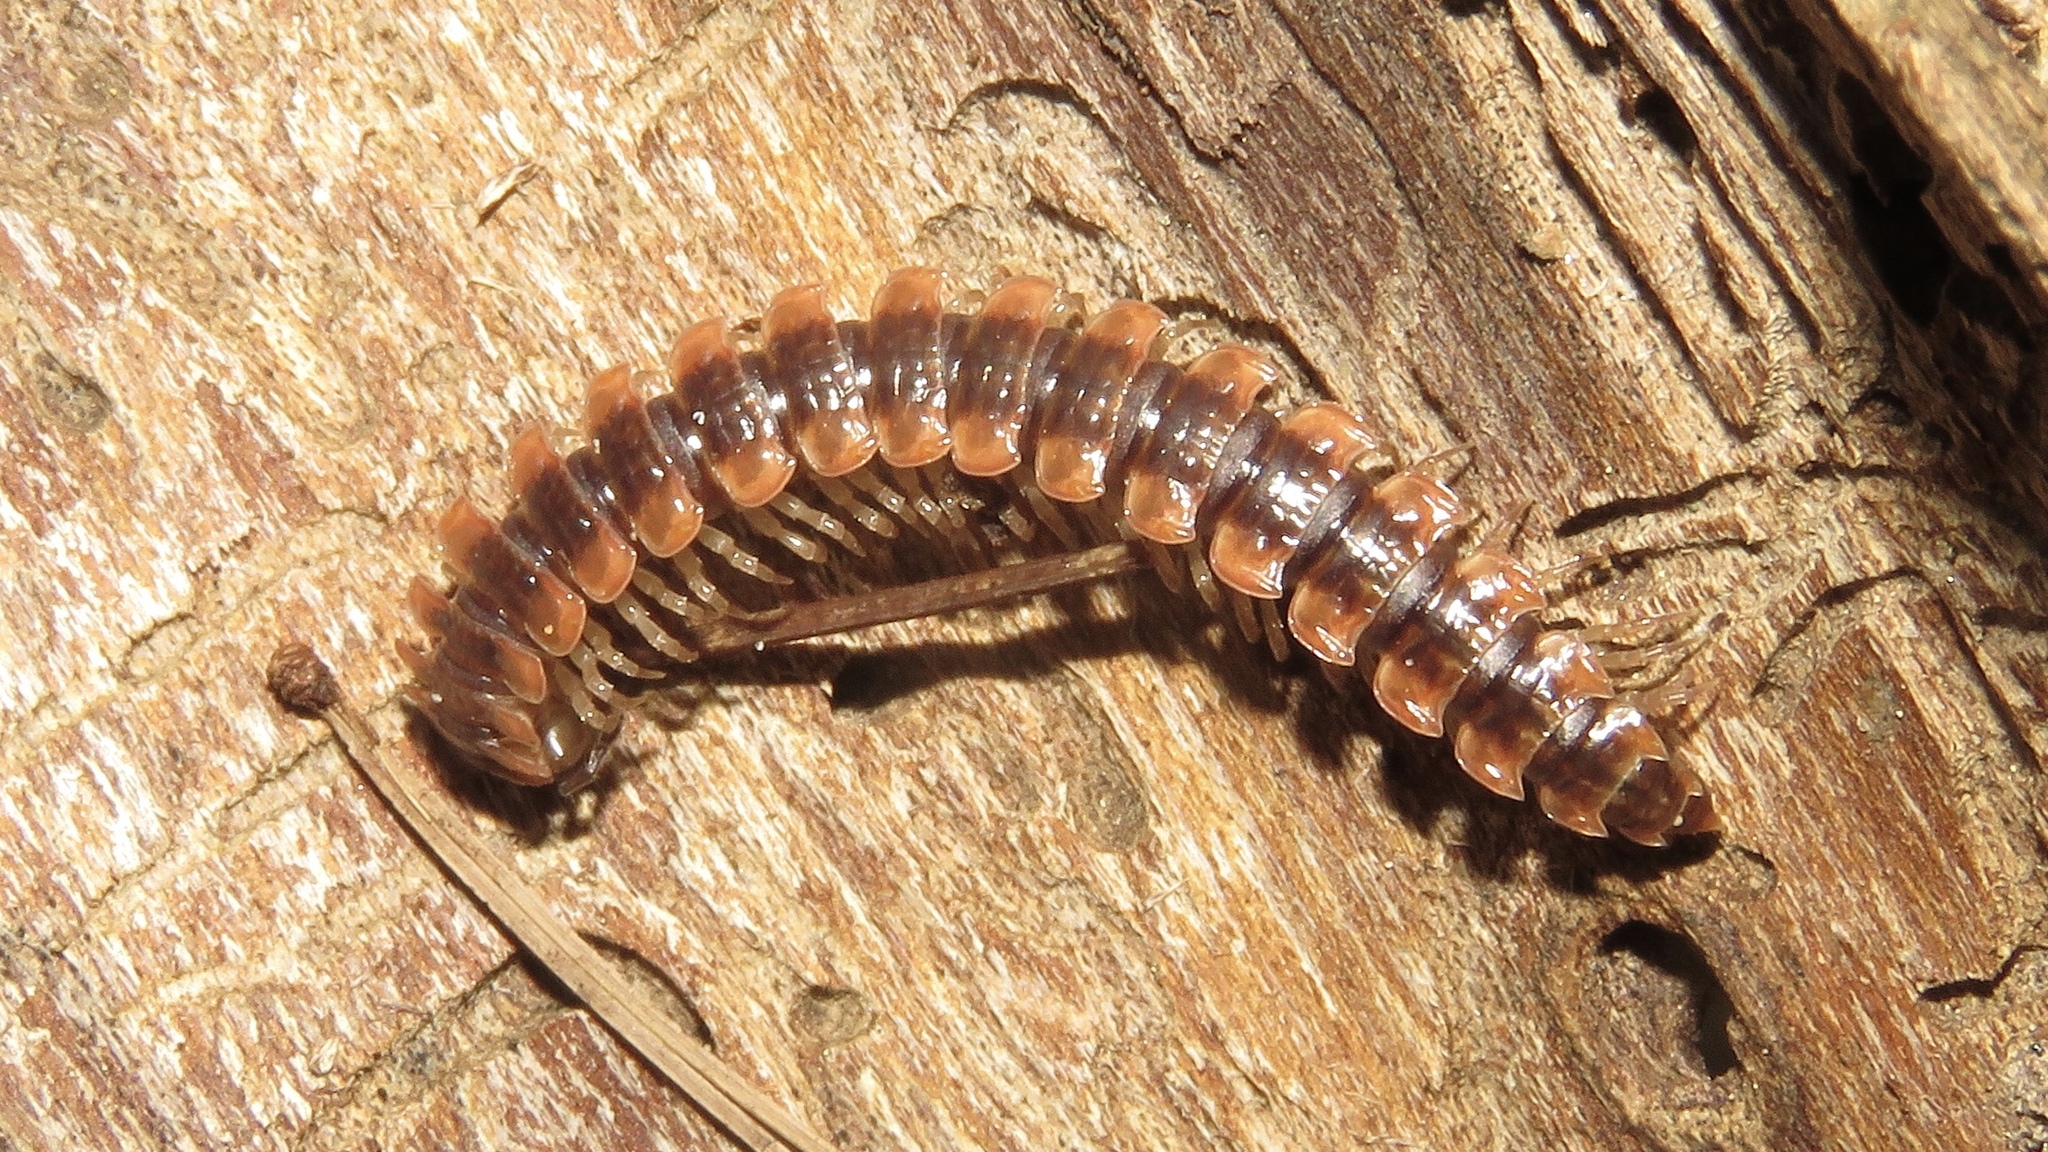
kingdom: Animalia
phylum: Arthropoda
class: Diplopoda
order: Polydesmida
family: Polydesmidae
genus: Pseudopolydesmus
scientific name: Pseudopolydesmus canadensis
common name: Canadian flat-back millipede
